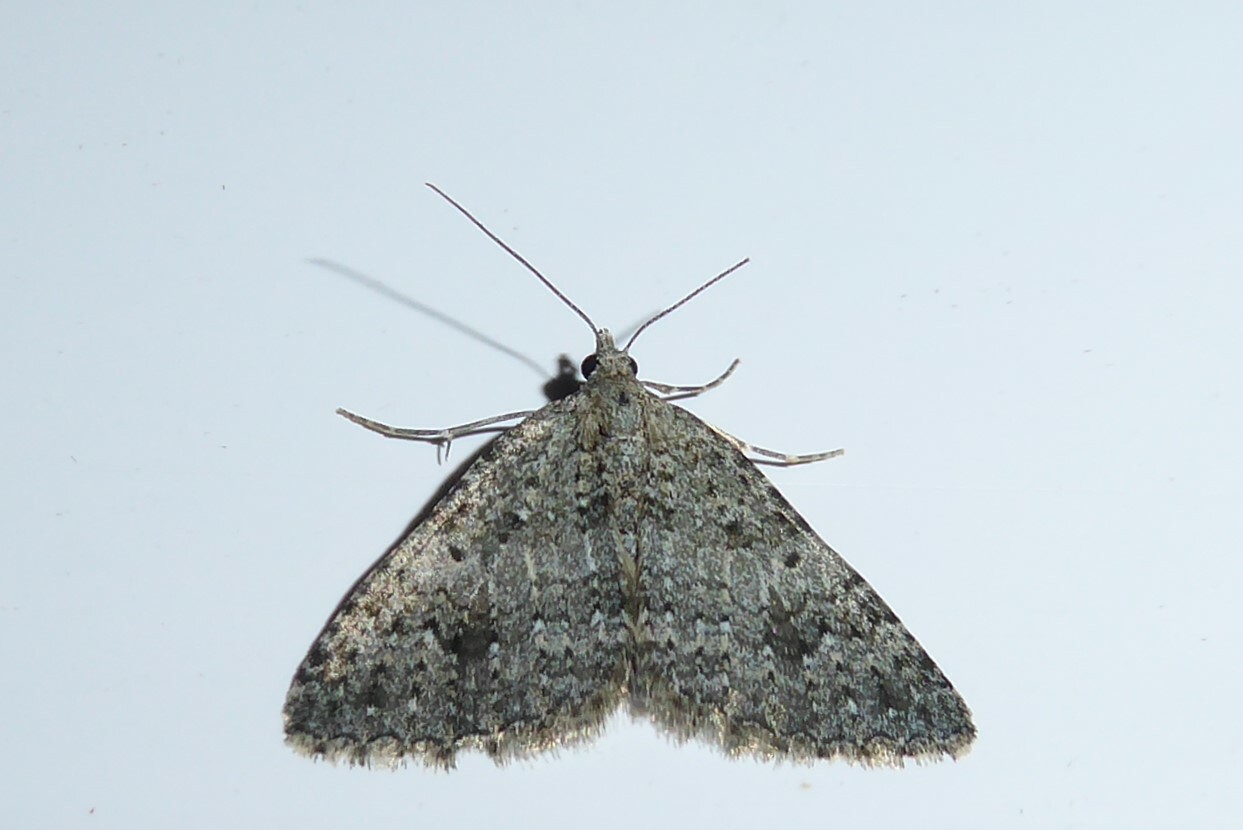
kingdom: Animalia
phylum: Arthropoda
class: Insecta
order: Lepidoptera
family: Geometridae
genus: Helastia
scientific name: Helastia corcularia
